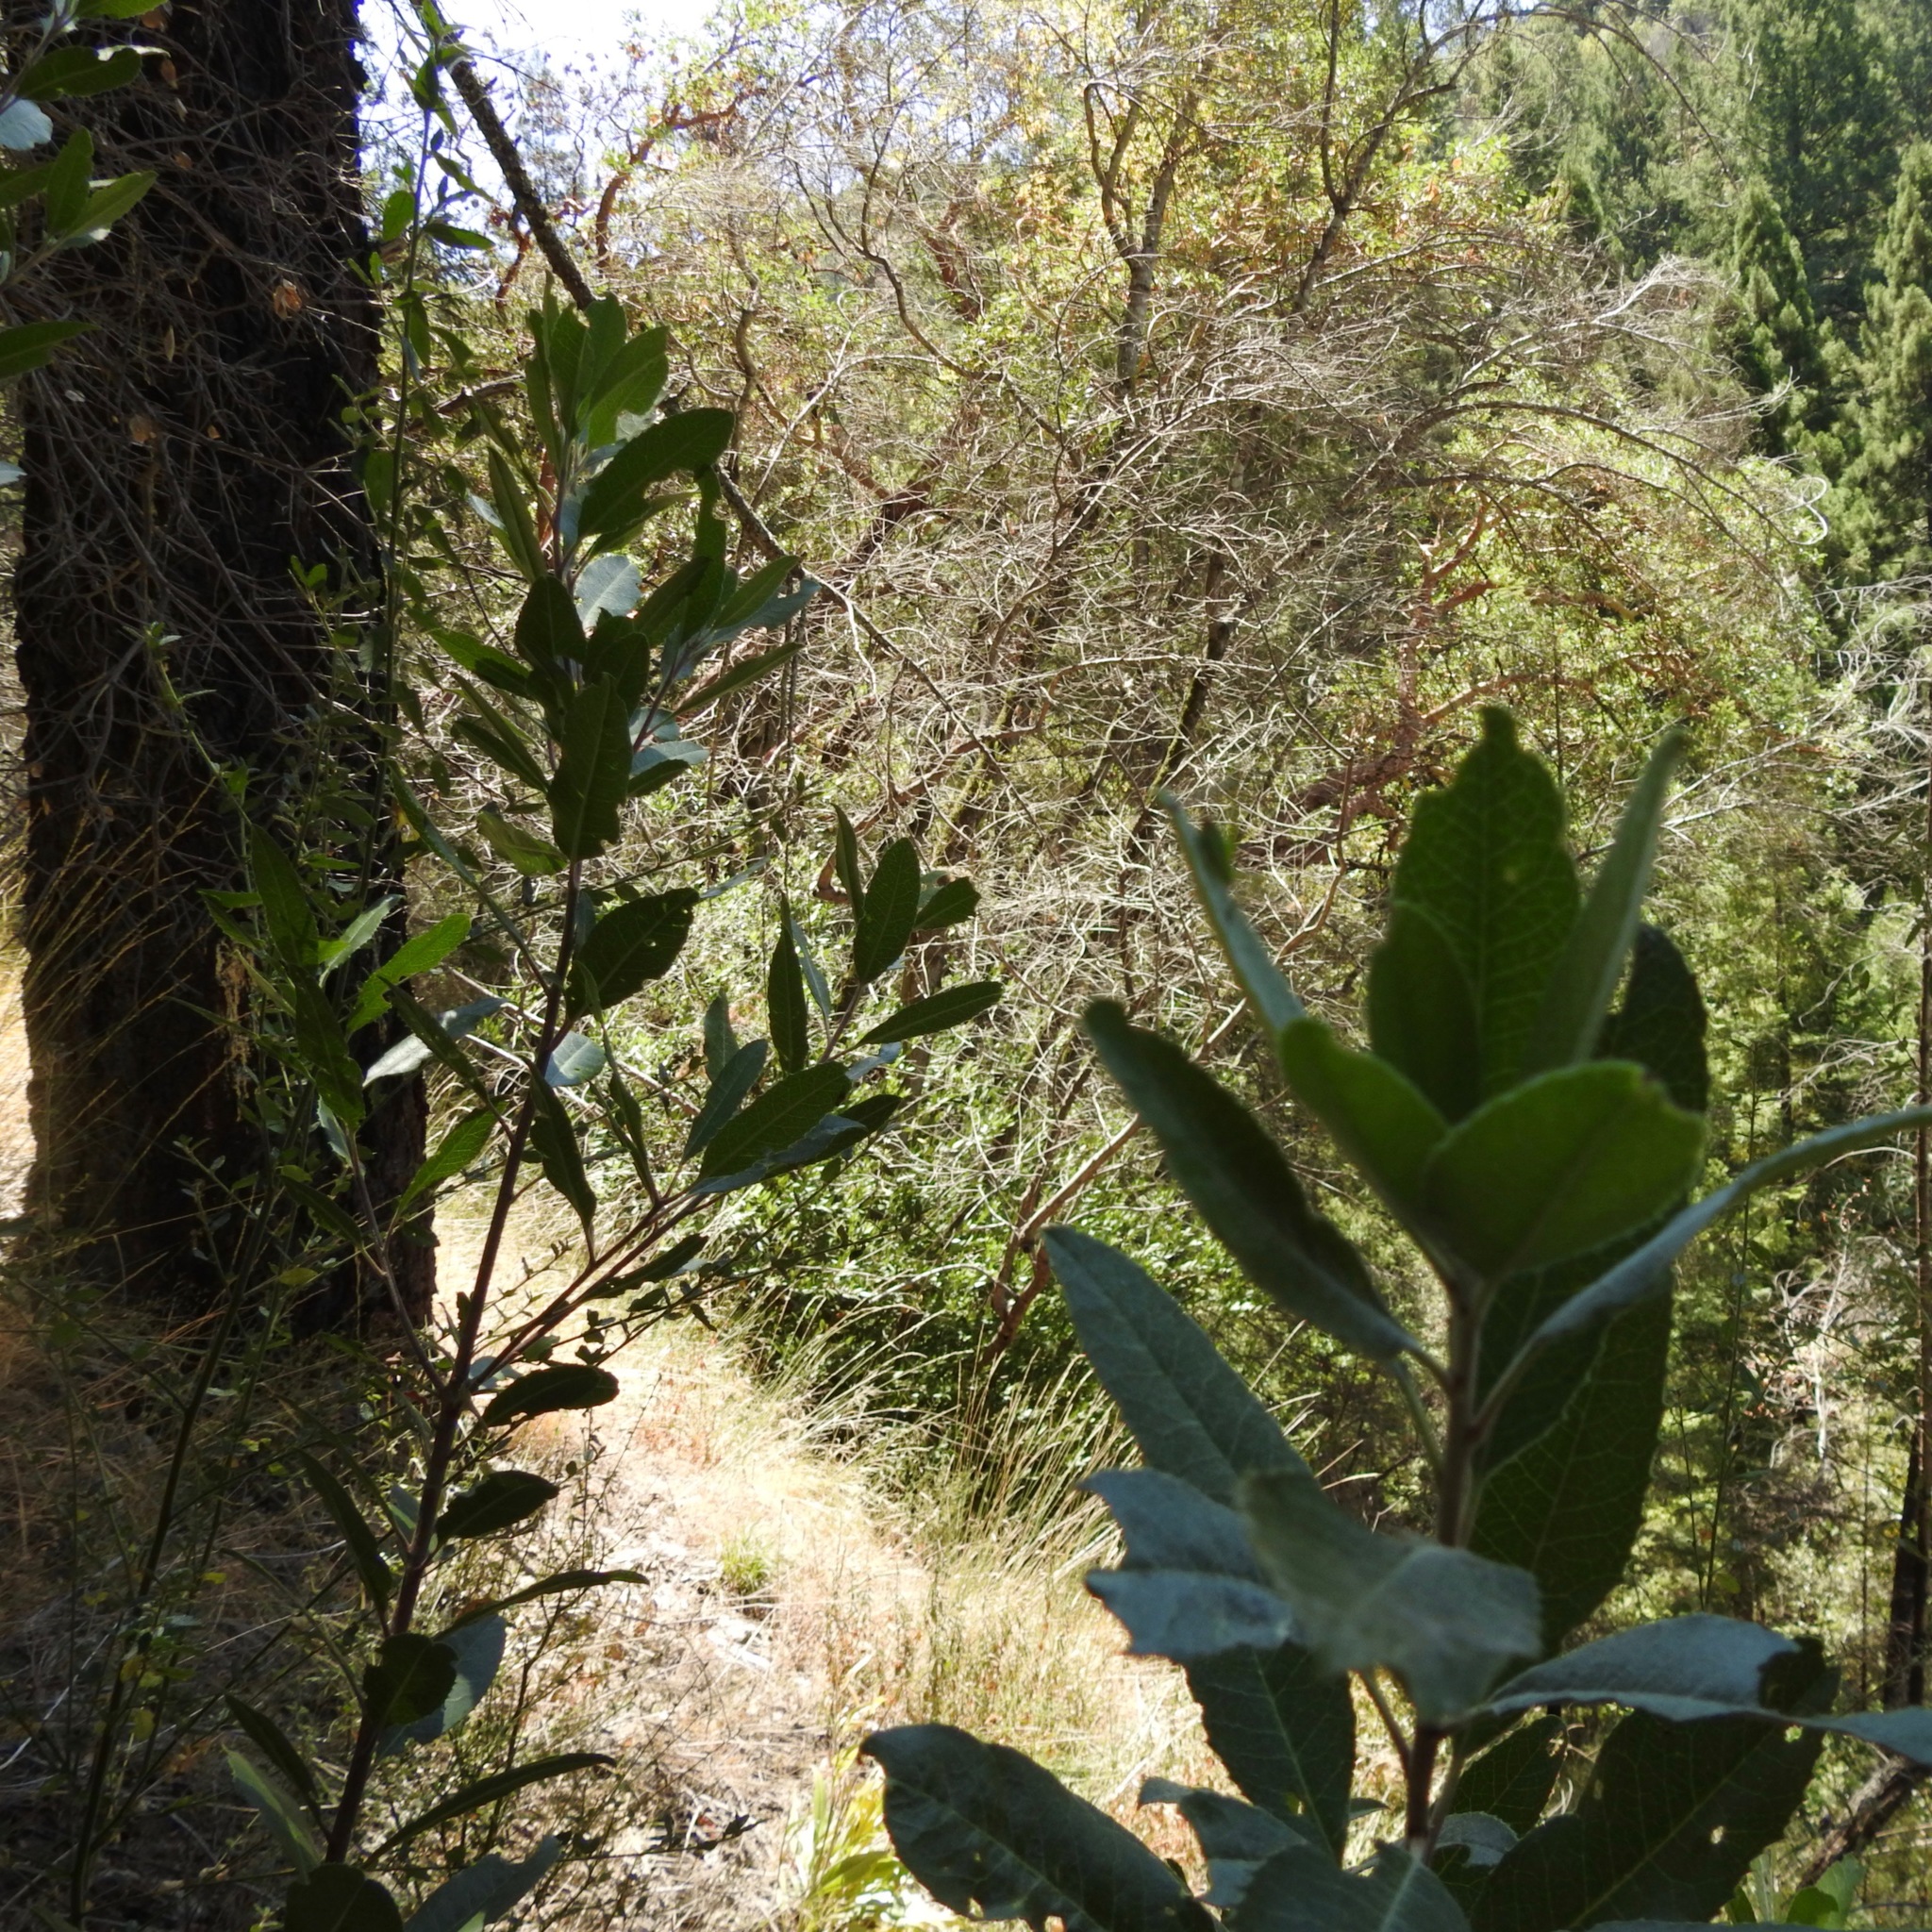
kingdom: Plantae
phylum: Tracheophyta
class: Magnoliopsida
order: Rosales
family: Rosaceae
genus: Heteromeles
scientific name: Heteromeles arbutifolia
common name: California-holly
